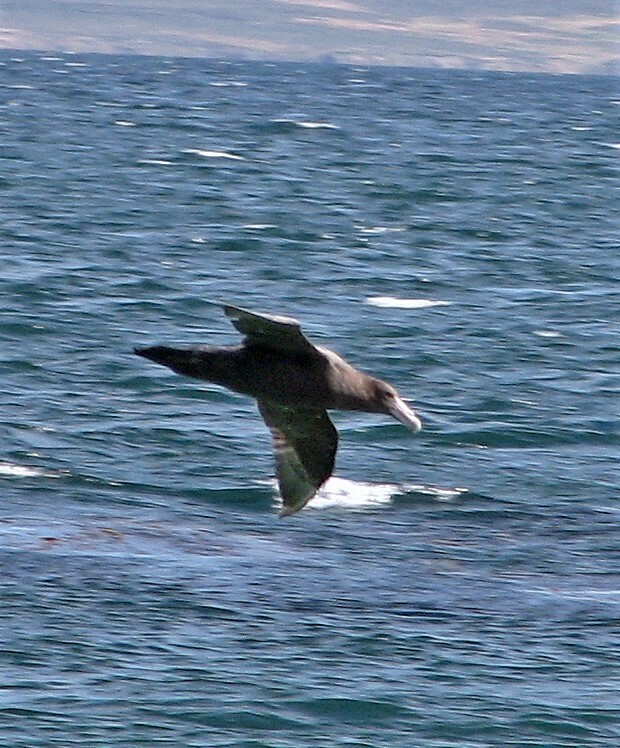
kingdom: Animalia
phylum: Chordata
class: Aves
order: Procellariiformes
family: Procellariidae
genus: Macronectes
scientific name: Macronectes giganteus
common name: Southern giant petrel
